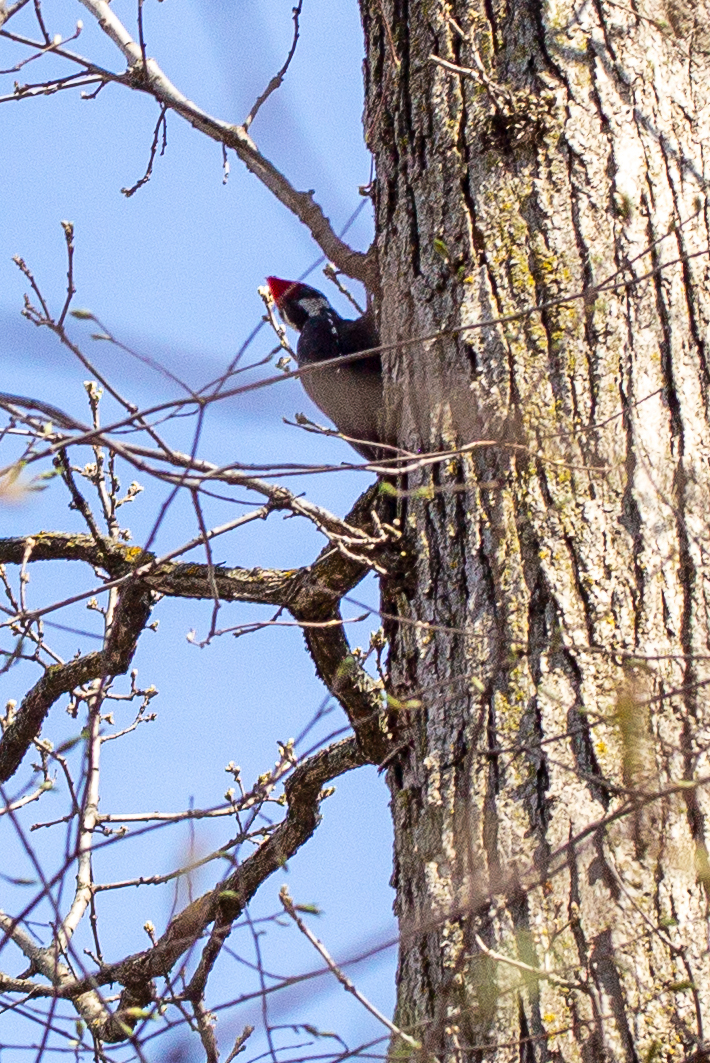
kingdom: Animalia
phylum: Chordata
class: Aves
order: Piciformes
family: Picidae
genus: Dryocopus
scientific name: Dryocopus pileatus
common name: Pileated woodpecker
